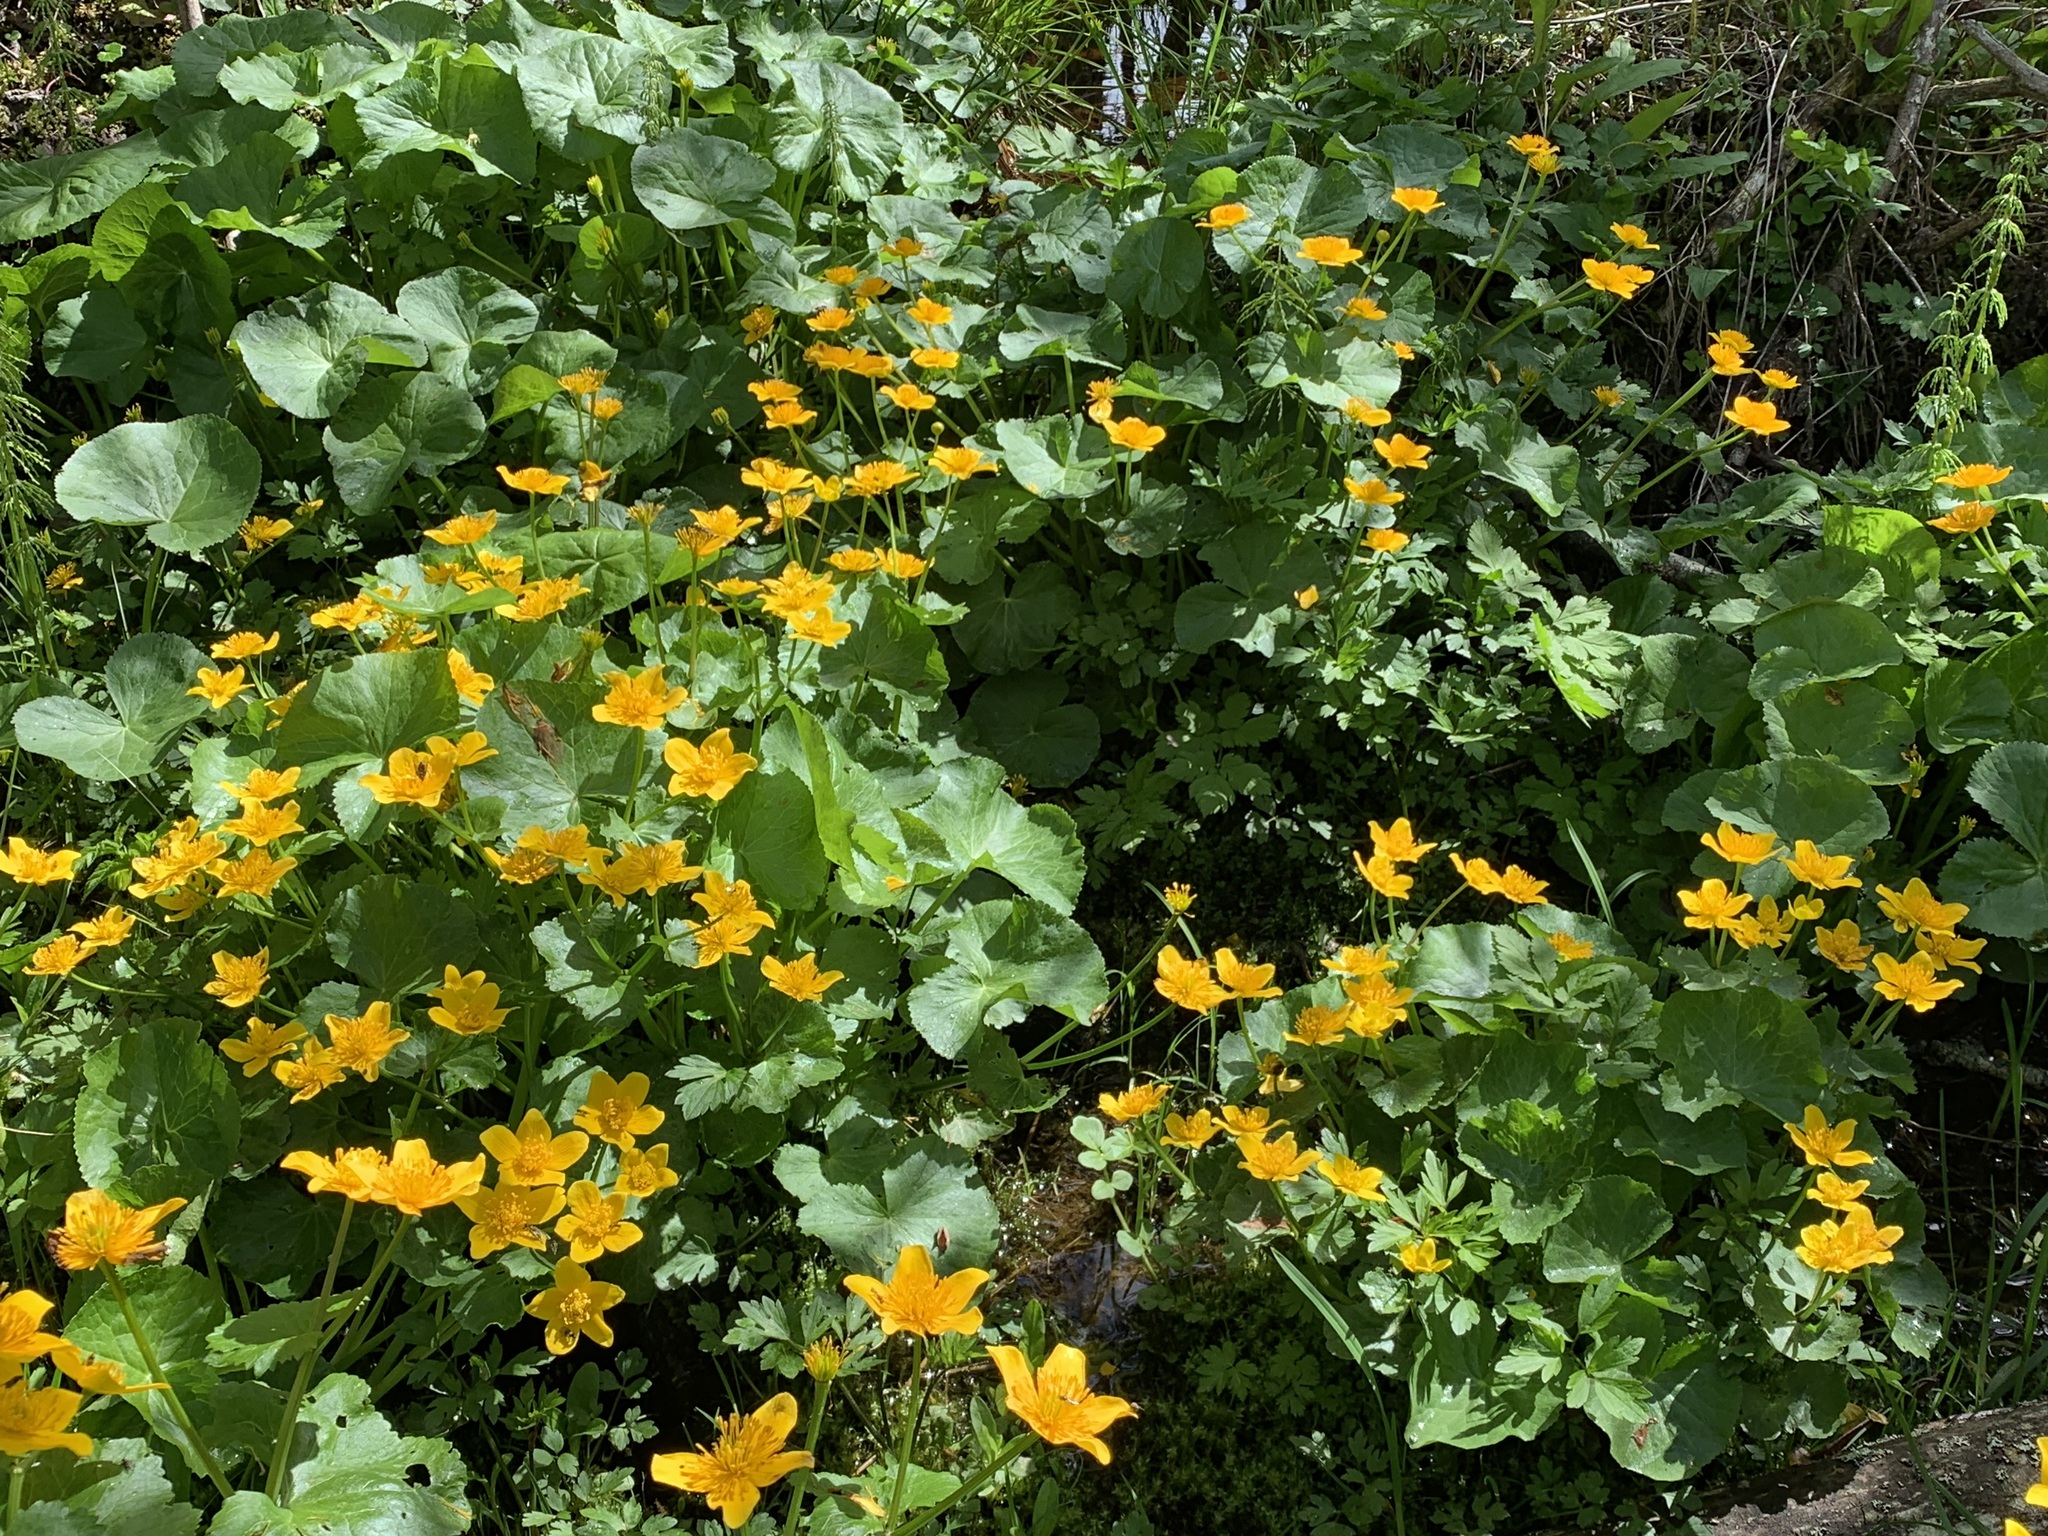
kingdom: Plantae
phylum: Tracheophyta
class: Magnoliopsida
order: Ranunculales
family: Ranunculaceae
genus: Caltha
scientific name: Caltha palustris
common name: Marsh marigold
